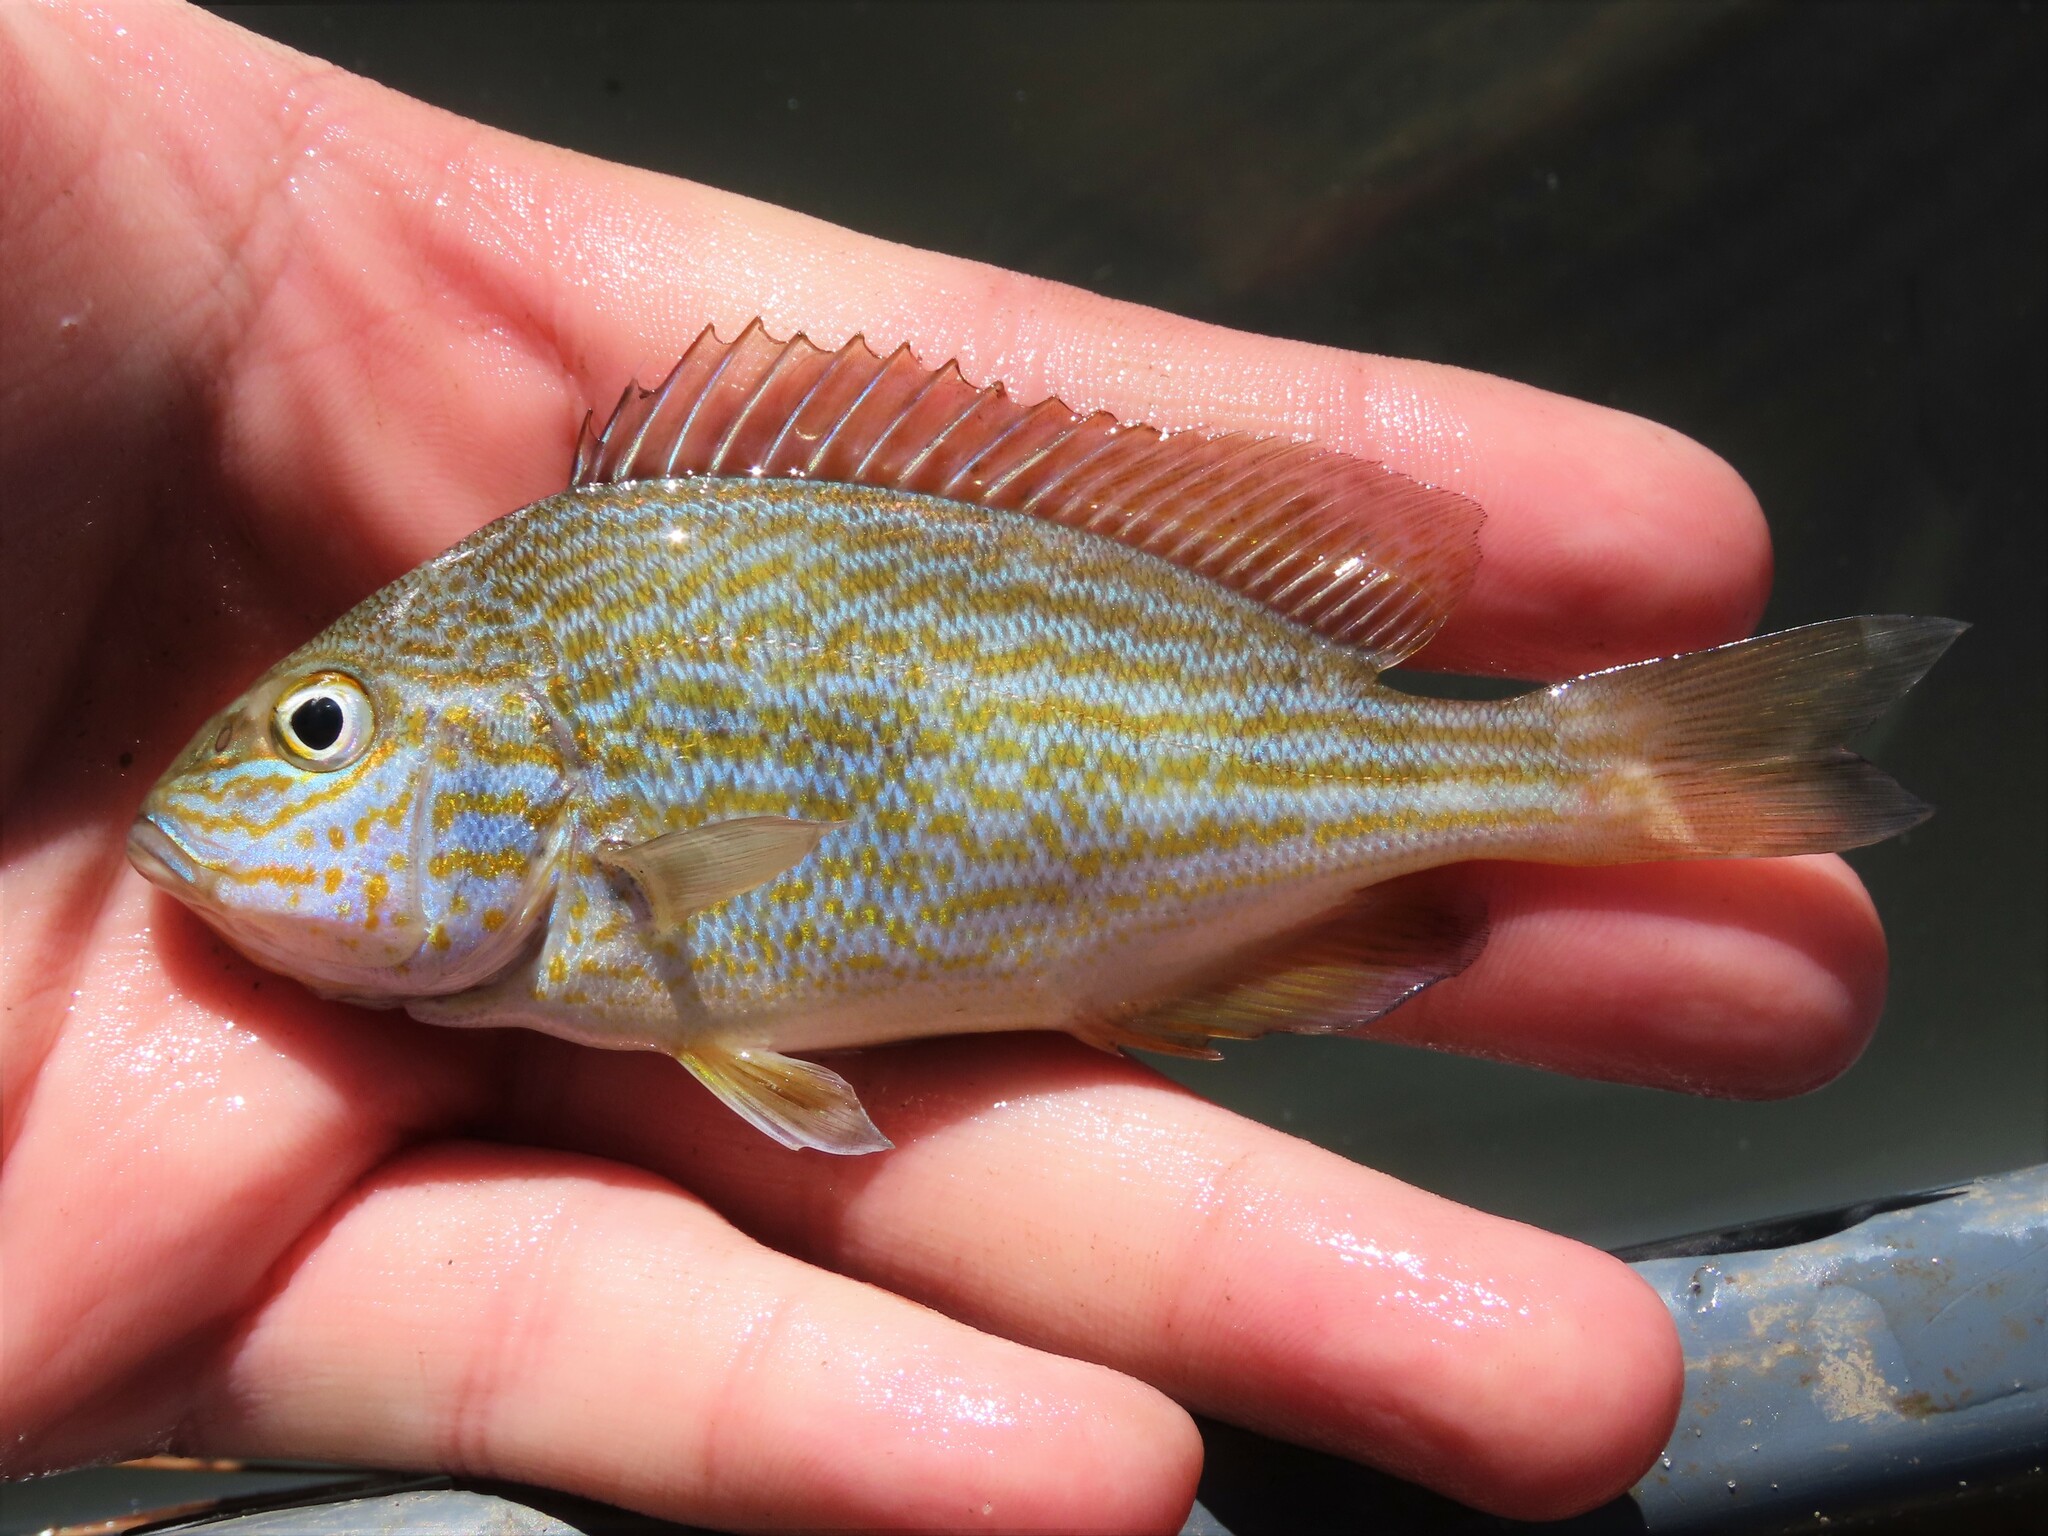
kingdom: Animalia
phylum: Chordata
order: Perciformes
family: Haemulidae
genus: Orthopristis
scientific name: Orthopristis chrysoptera
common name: Pigfish
